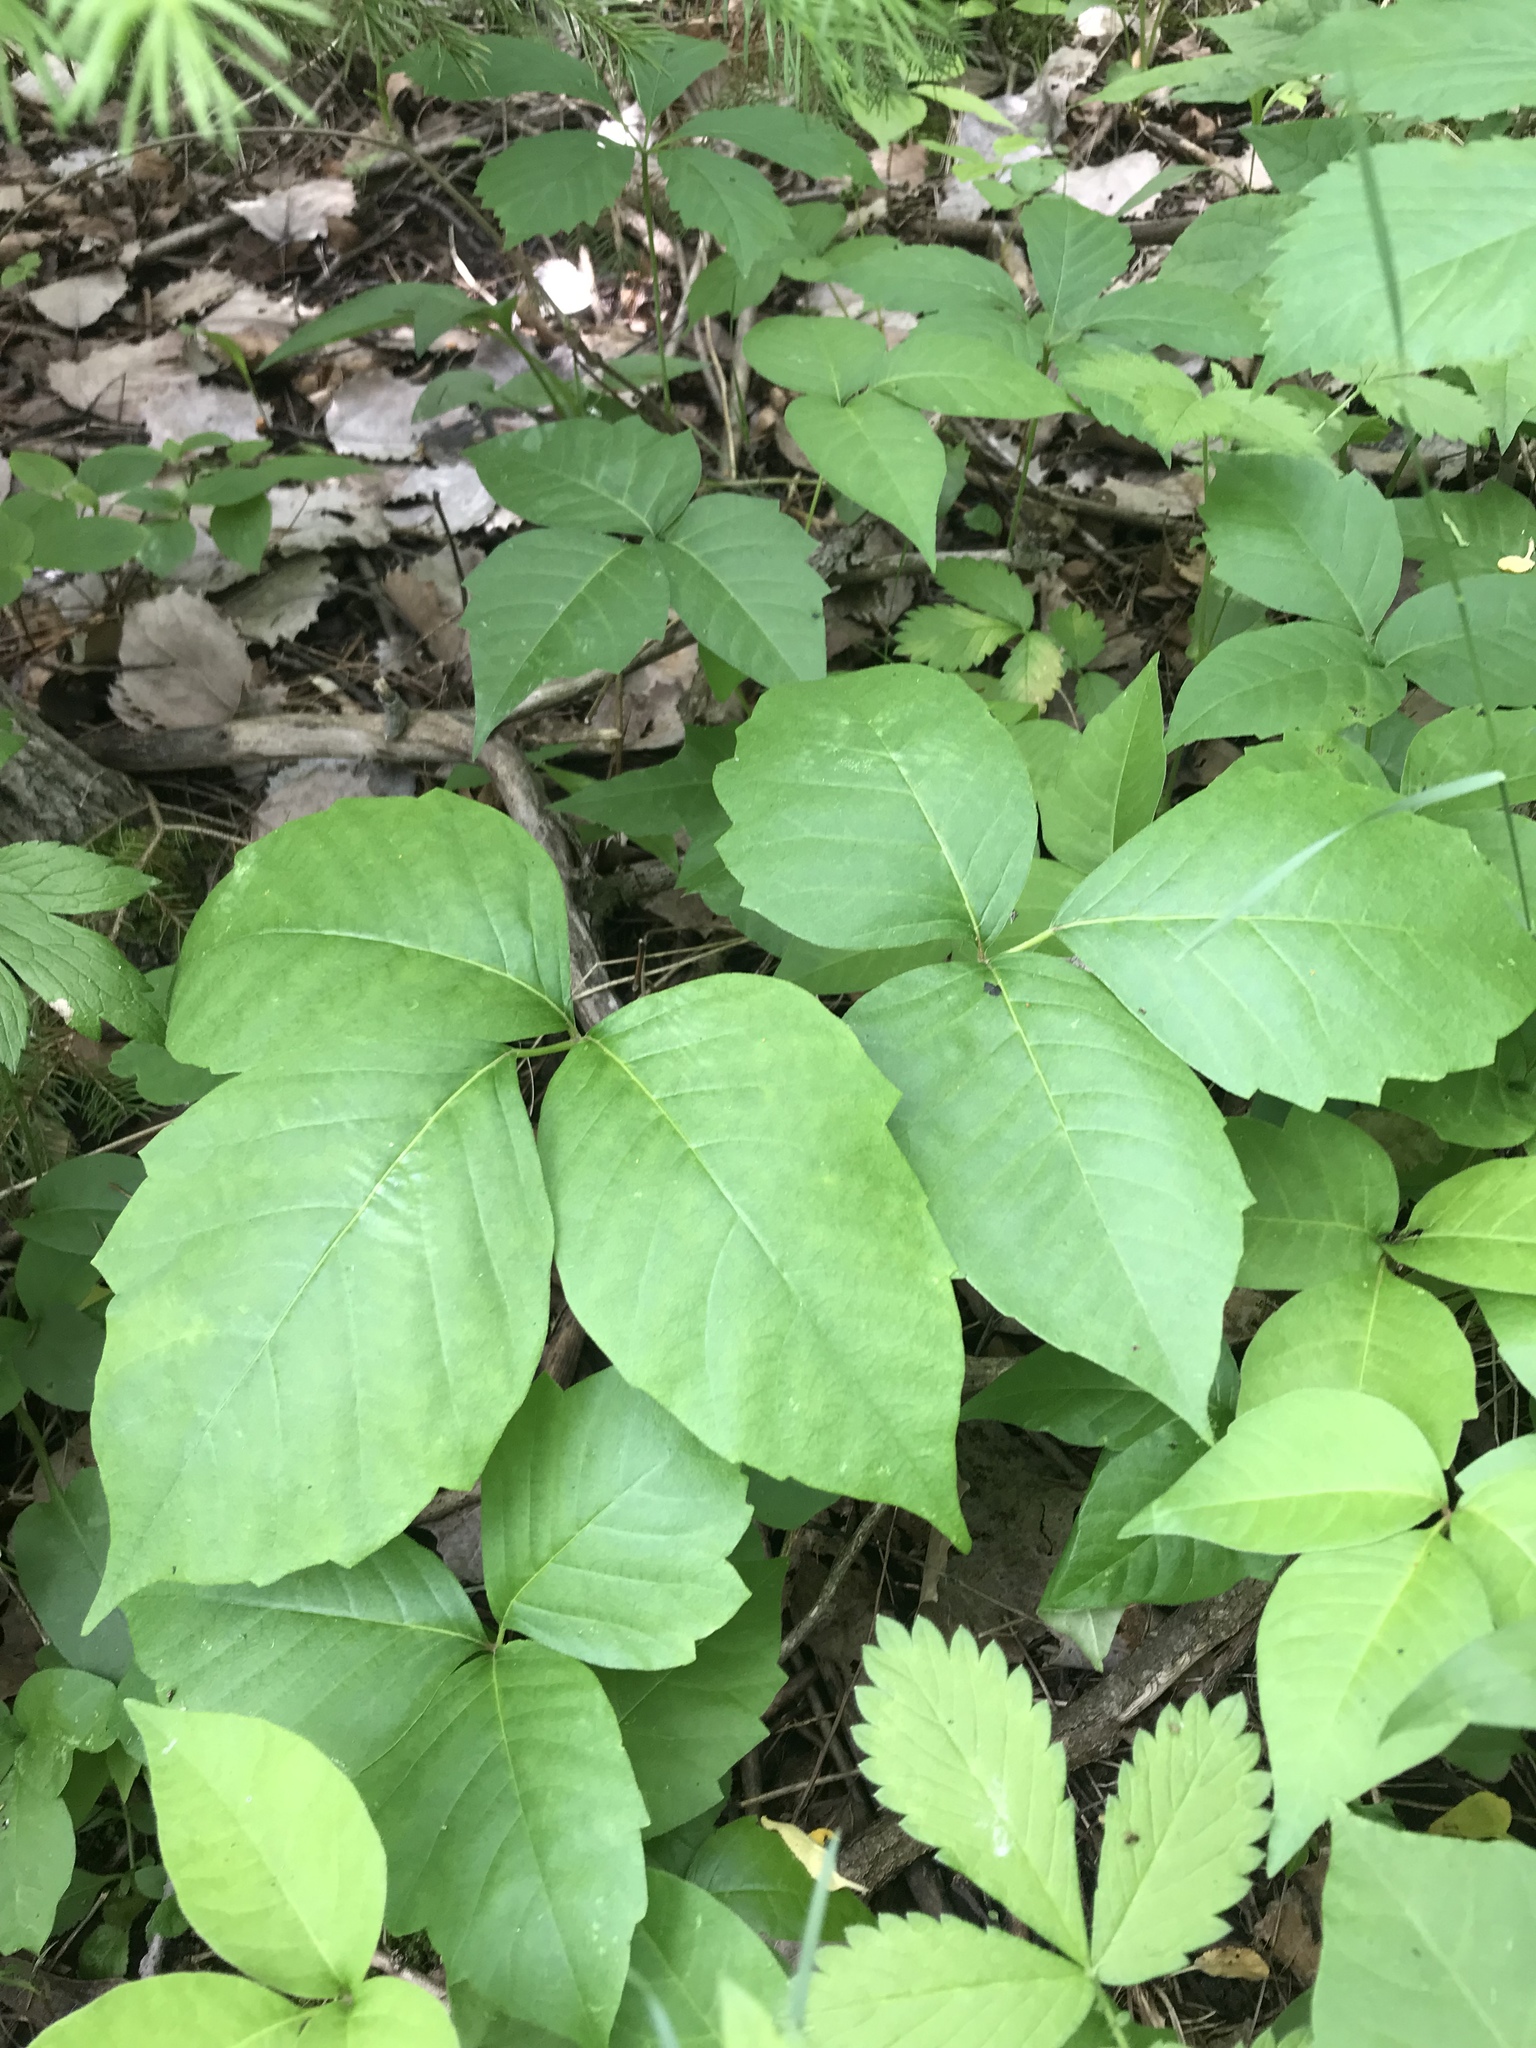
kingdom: Plantae
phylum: Tracheophyta
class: Magnoliopsida
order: Sapindales
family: Anacardiaceae
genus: Toxicodendron
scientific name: Toxicodendron radicans
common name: Poison ivy
